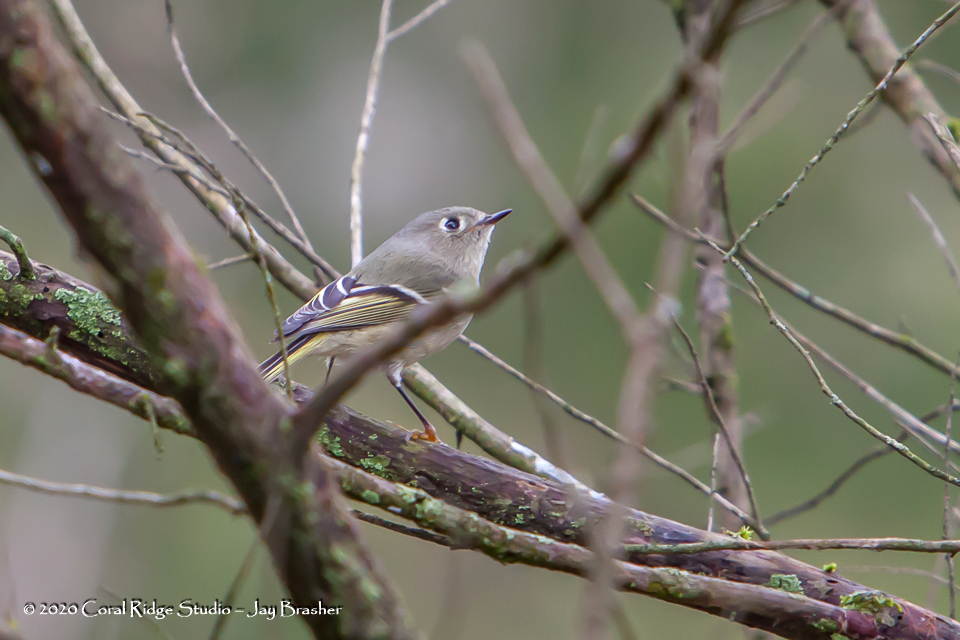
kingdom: Animalia
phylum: Chordata
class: Aves
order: Passeriformes
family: Regulidae
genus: Regulus
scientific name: Regulus calendula
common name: Ruby-crowned kinglet
